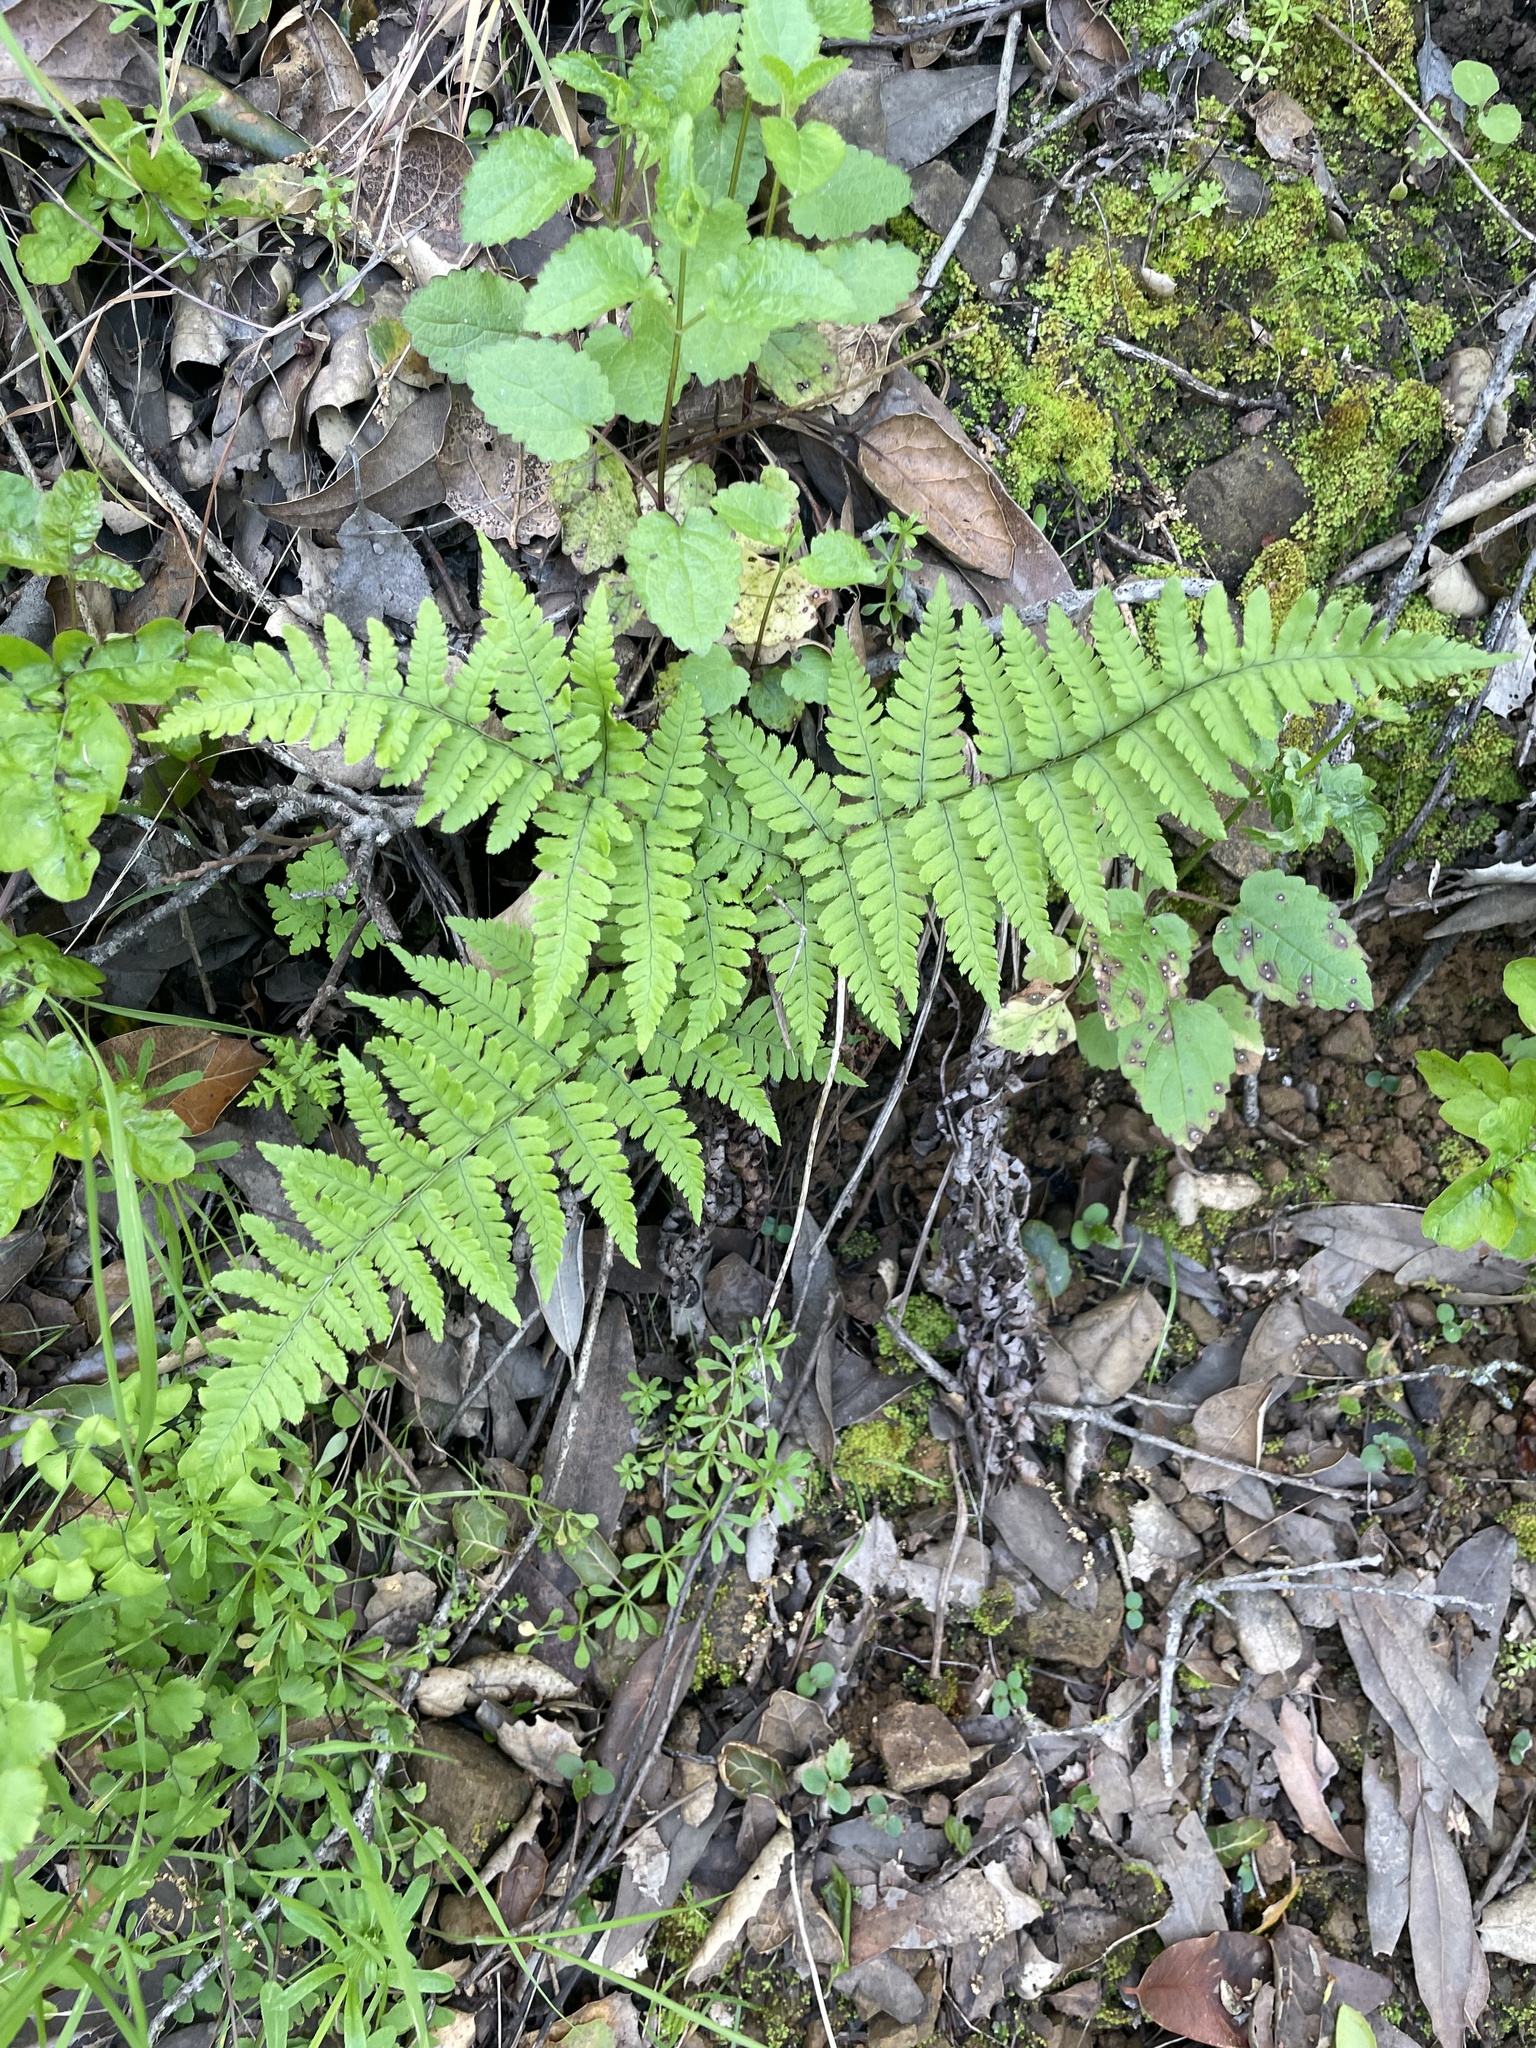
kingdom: Plantae
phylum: Tracheophyta
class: Polypodiopsida
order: Polypodiales
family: Dryopteridaceae
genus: Dryopteris
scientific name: Dryopteris arguta
